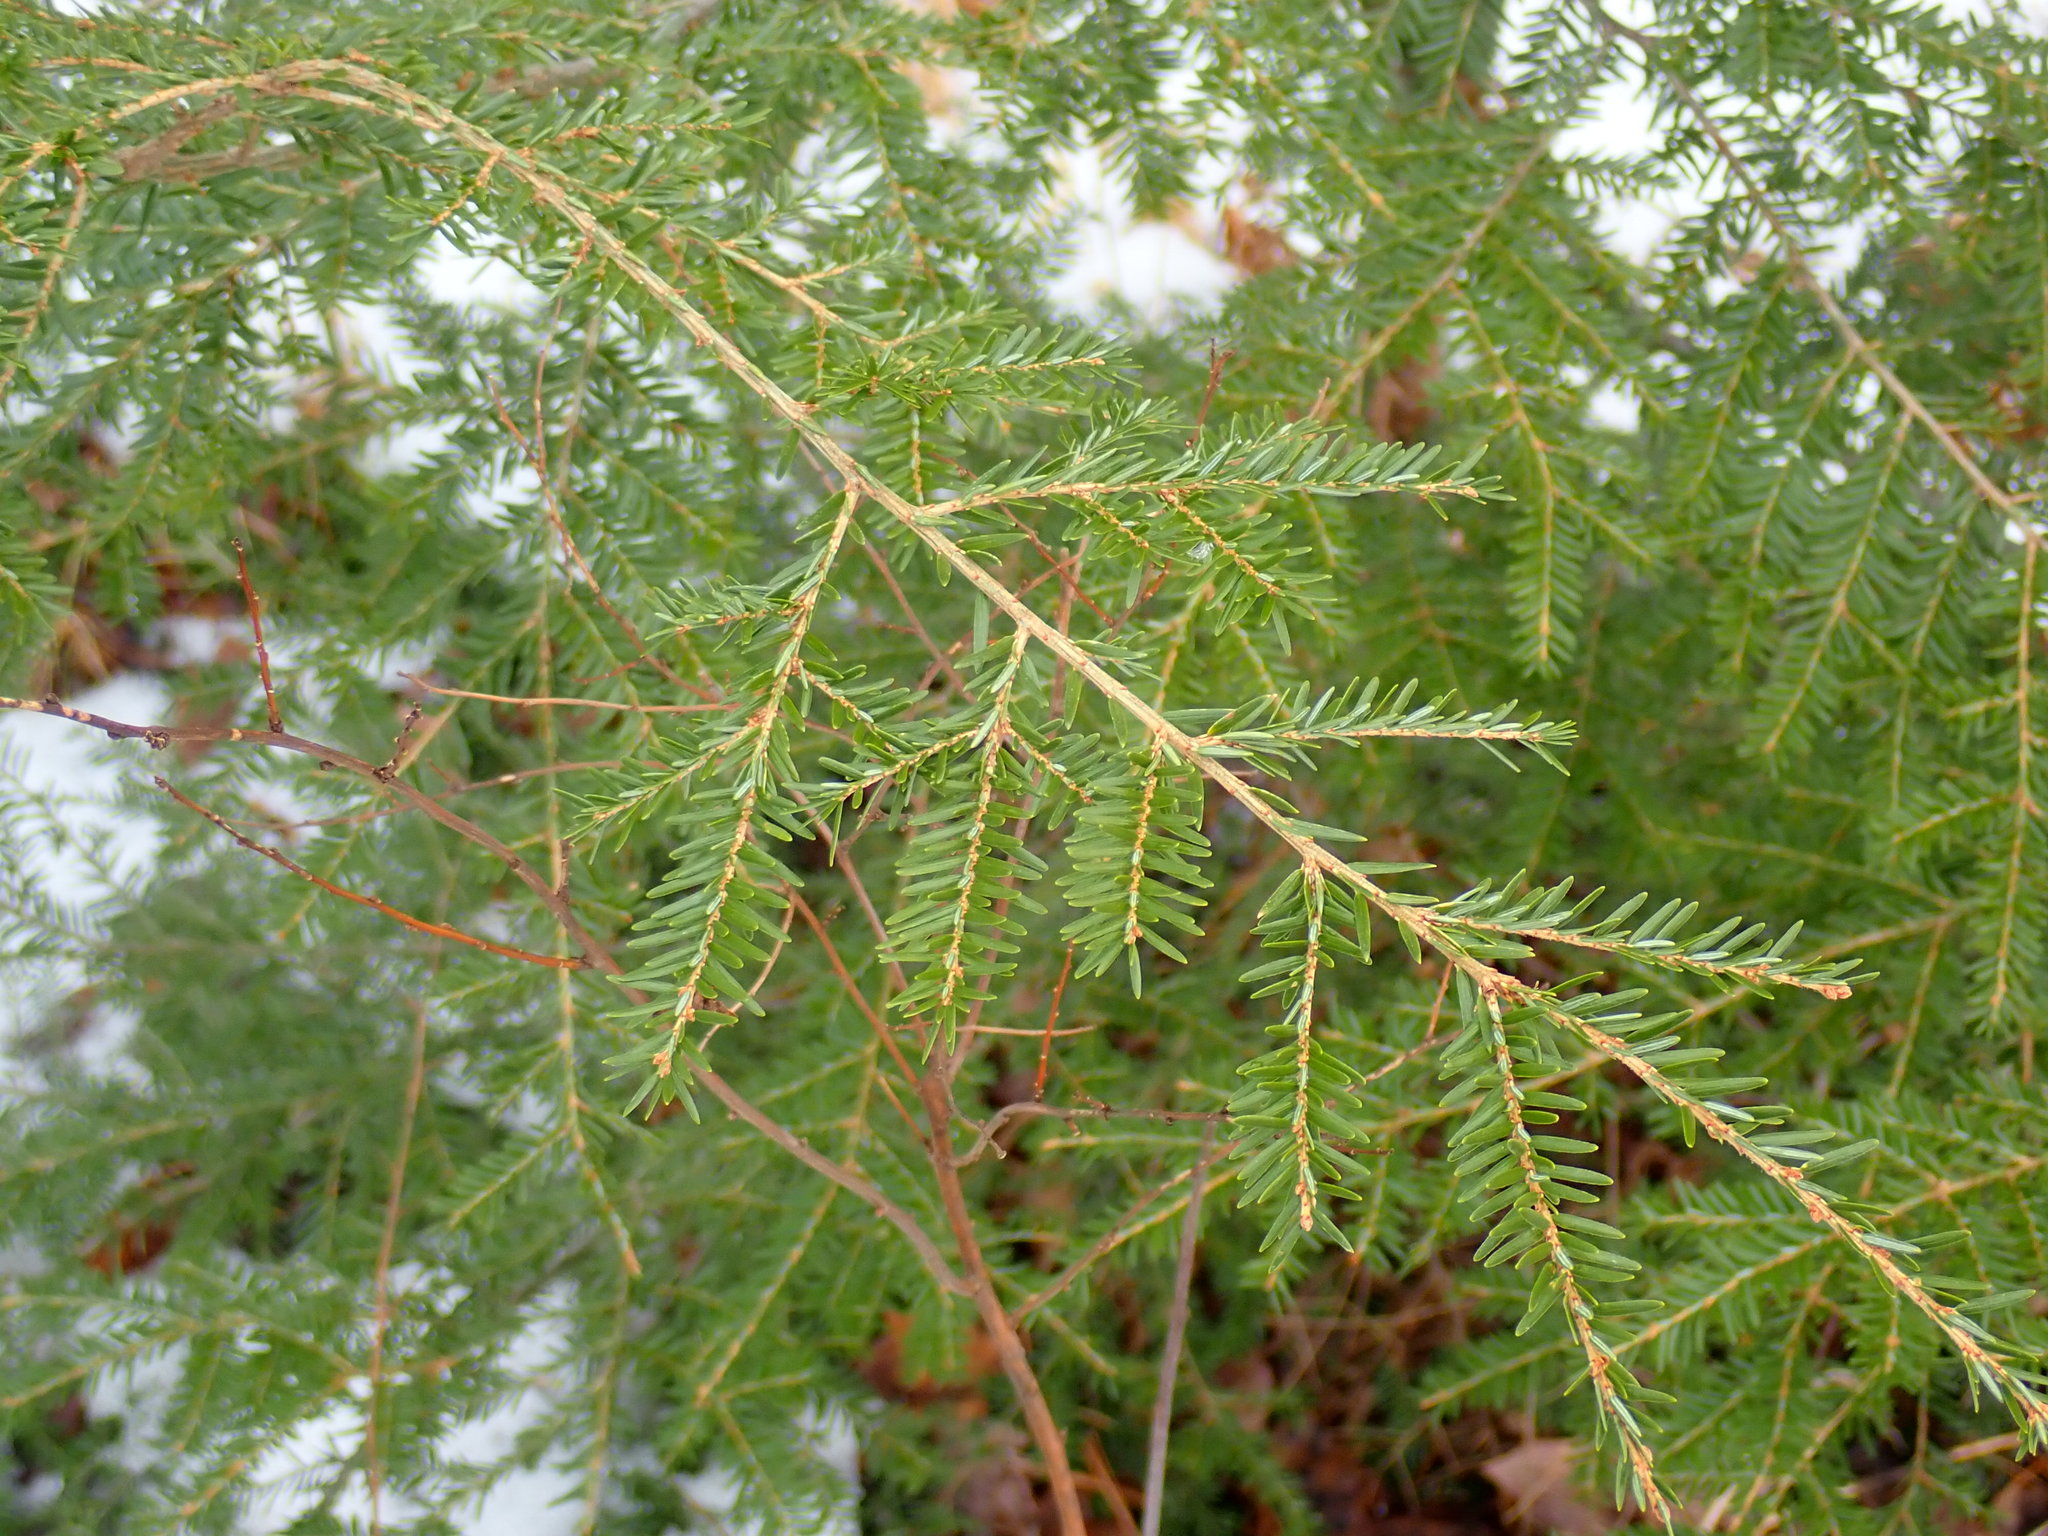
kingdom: Plantae
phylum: Tracheophyta
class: Pinopsida
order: Pinales
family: Pinaceae
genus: Tsuga
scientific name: Tsuga canadensis
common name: Eastern hemlock
